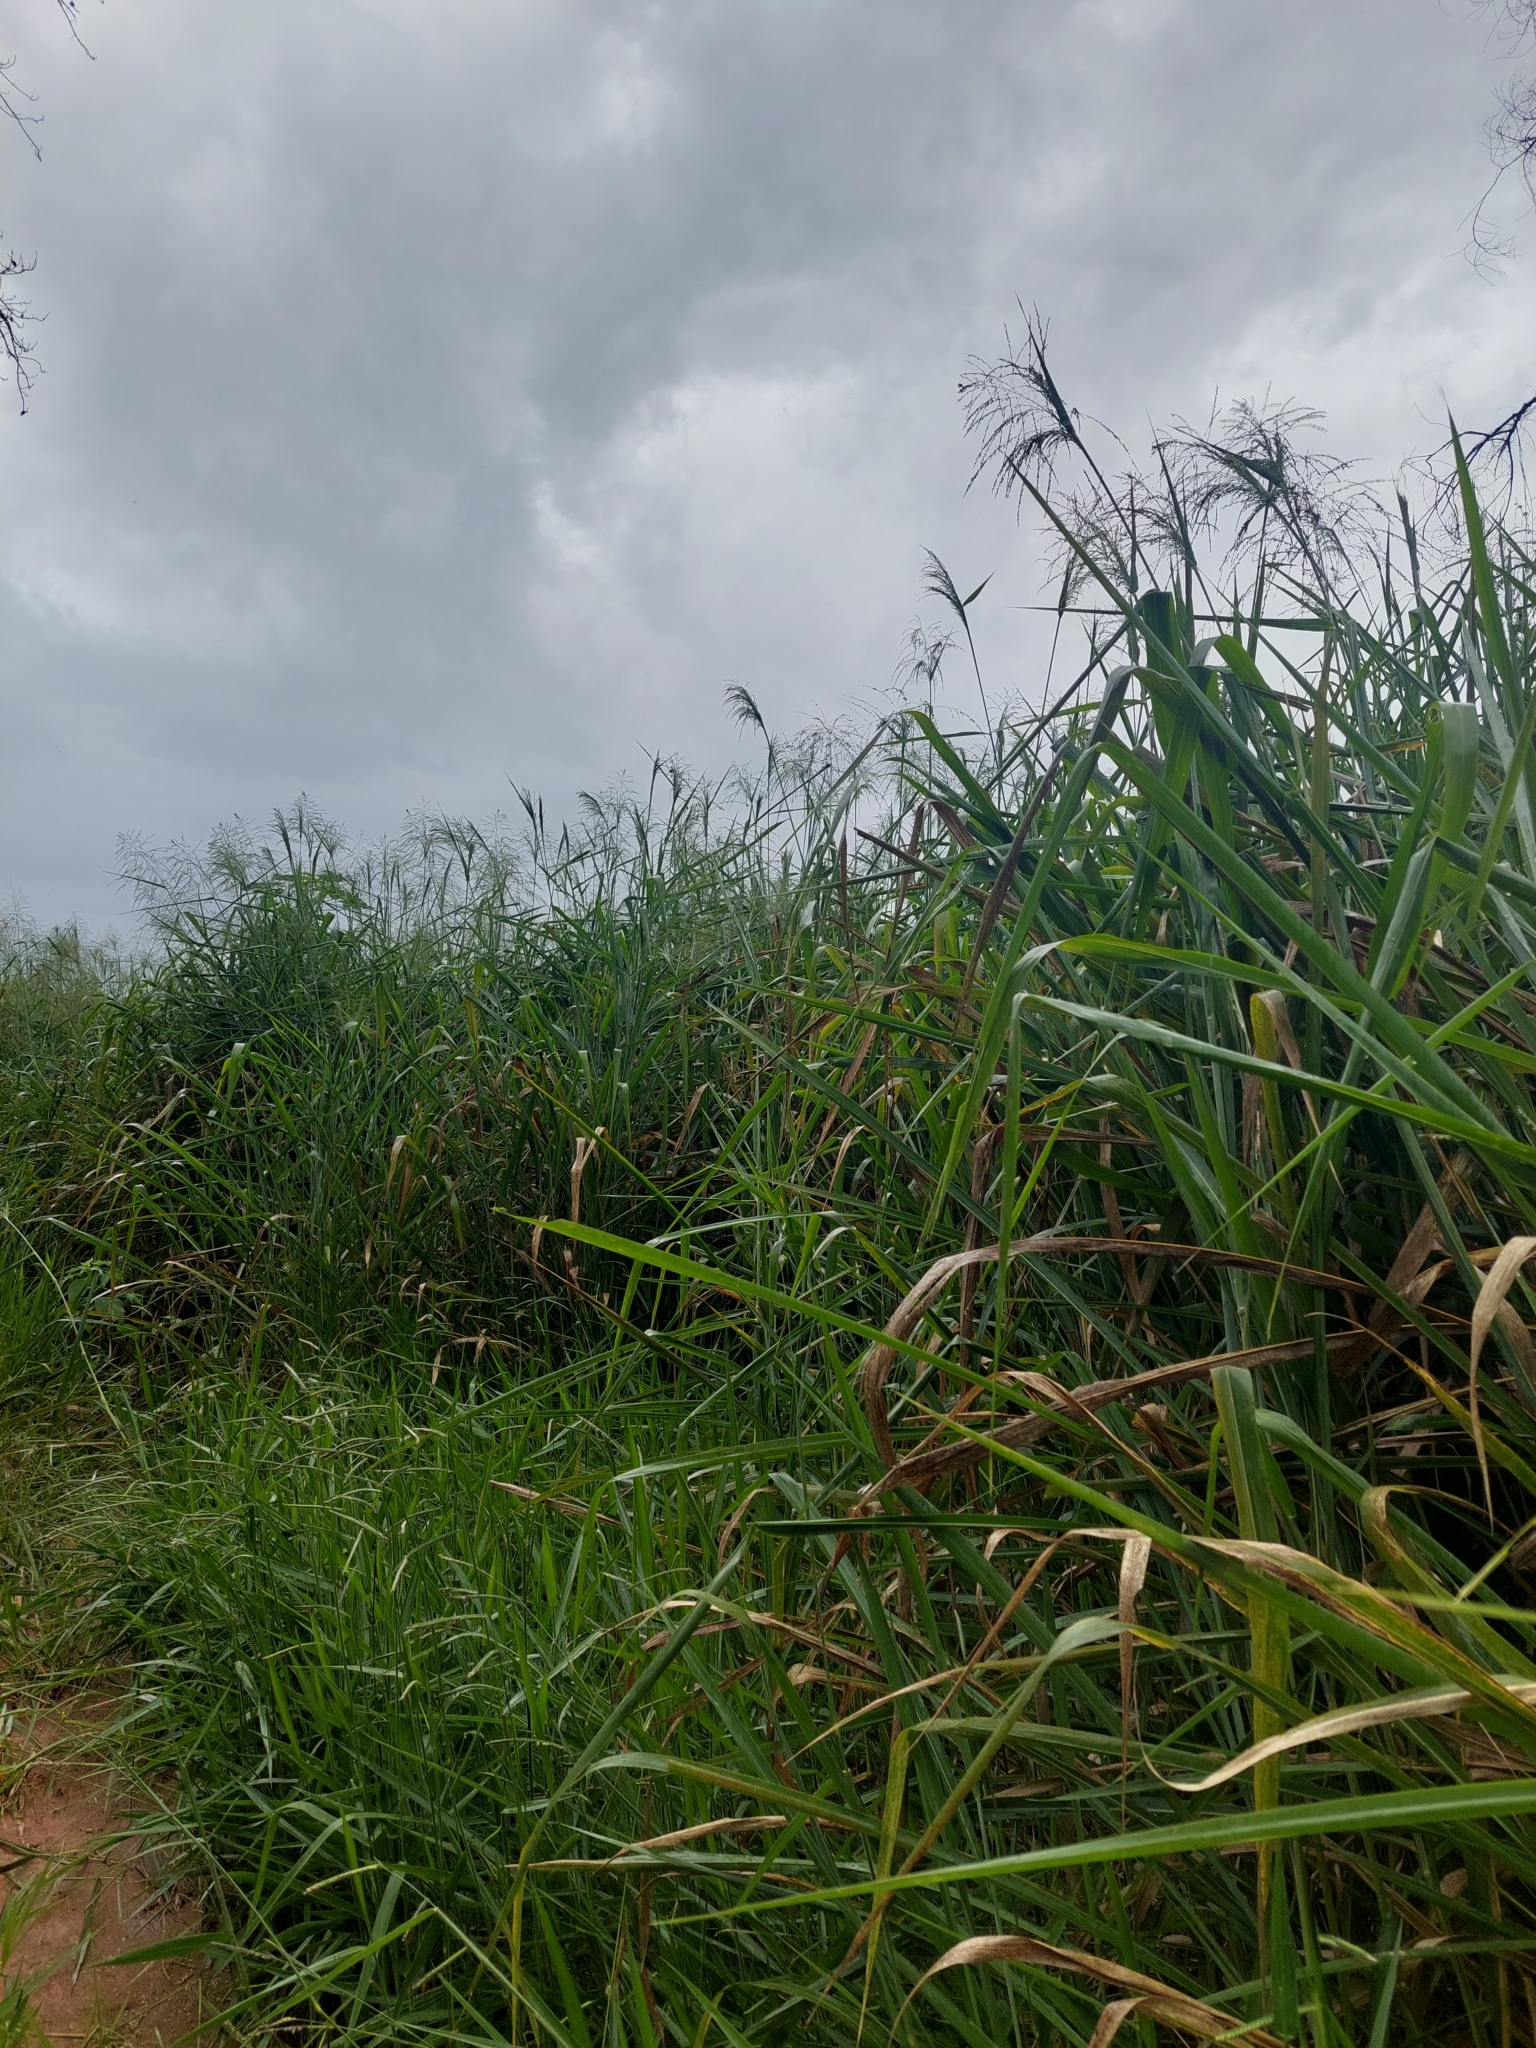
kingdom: Plantae
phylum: Tracheophyta
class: Liliopsida
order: Poales
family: Poaceae
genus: Megathyrsus
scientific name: Megathyrsus maximus
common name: Guineagrass
